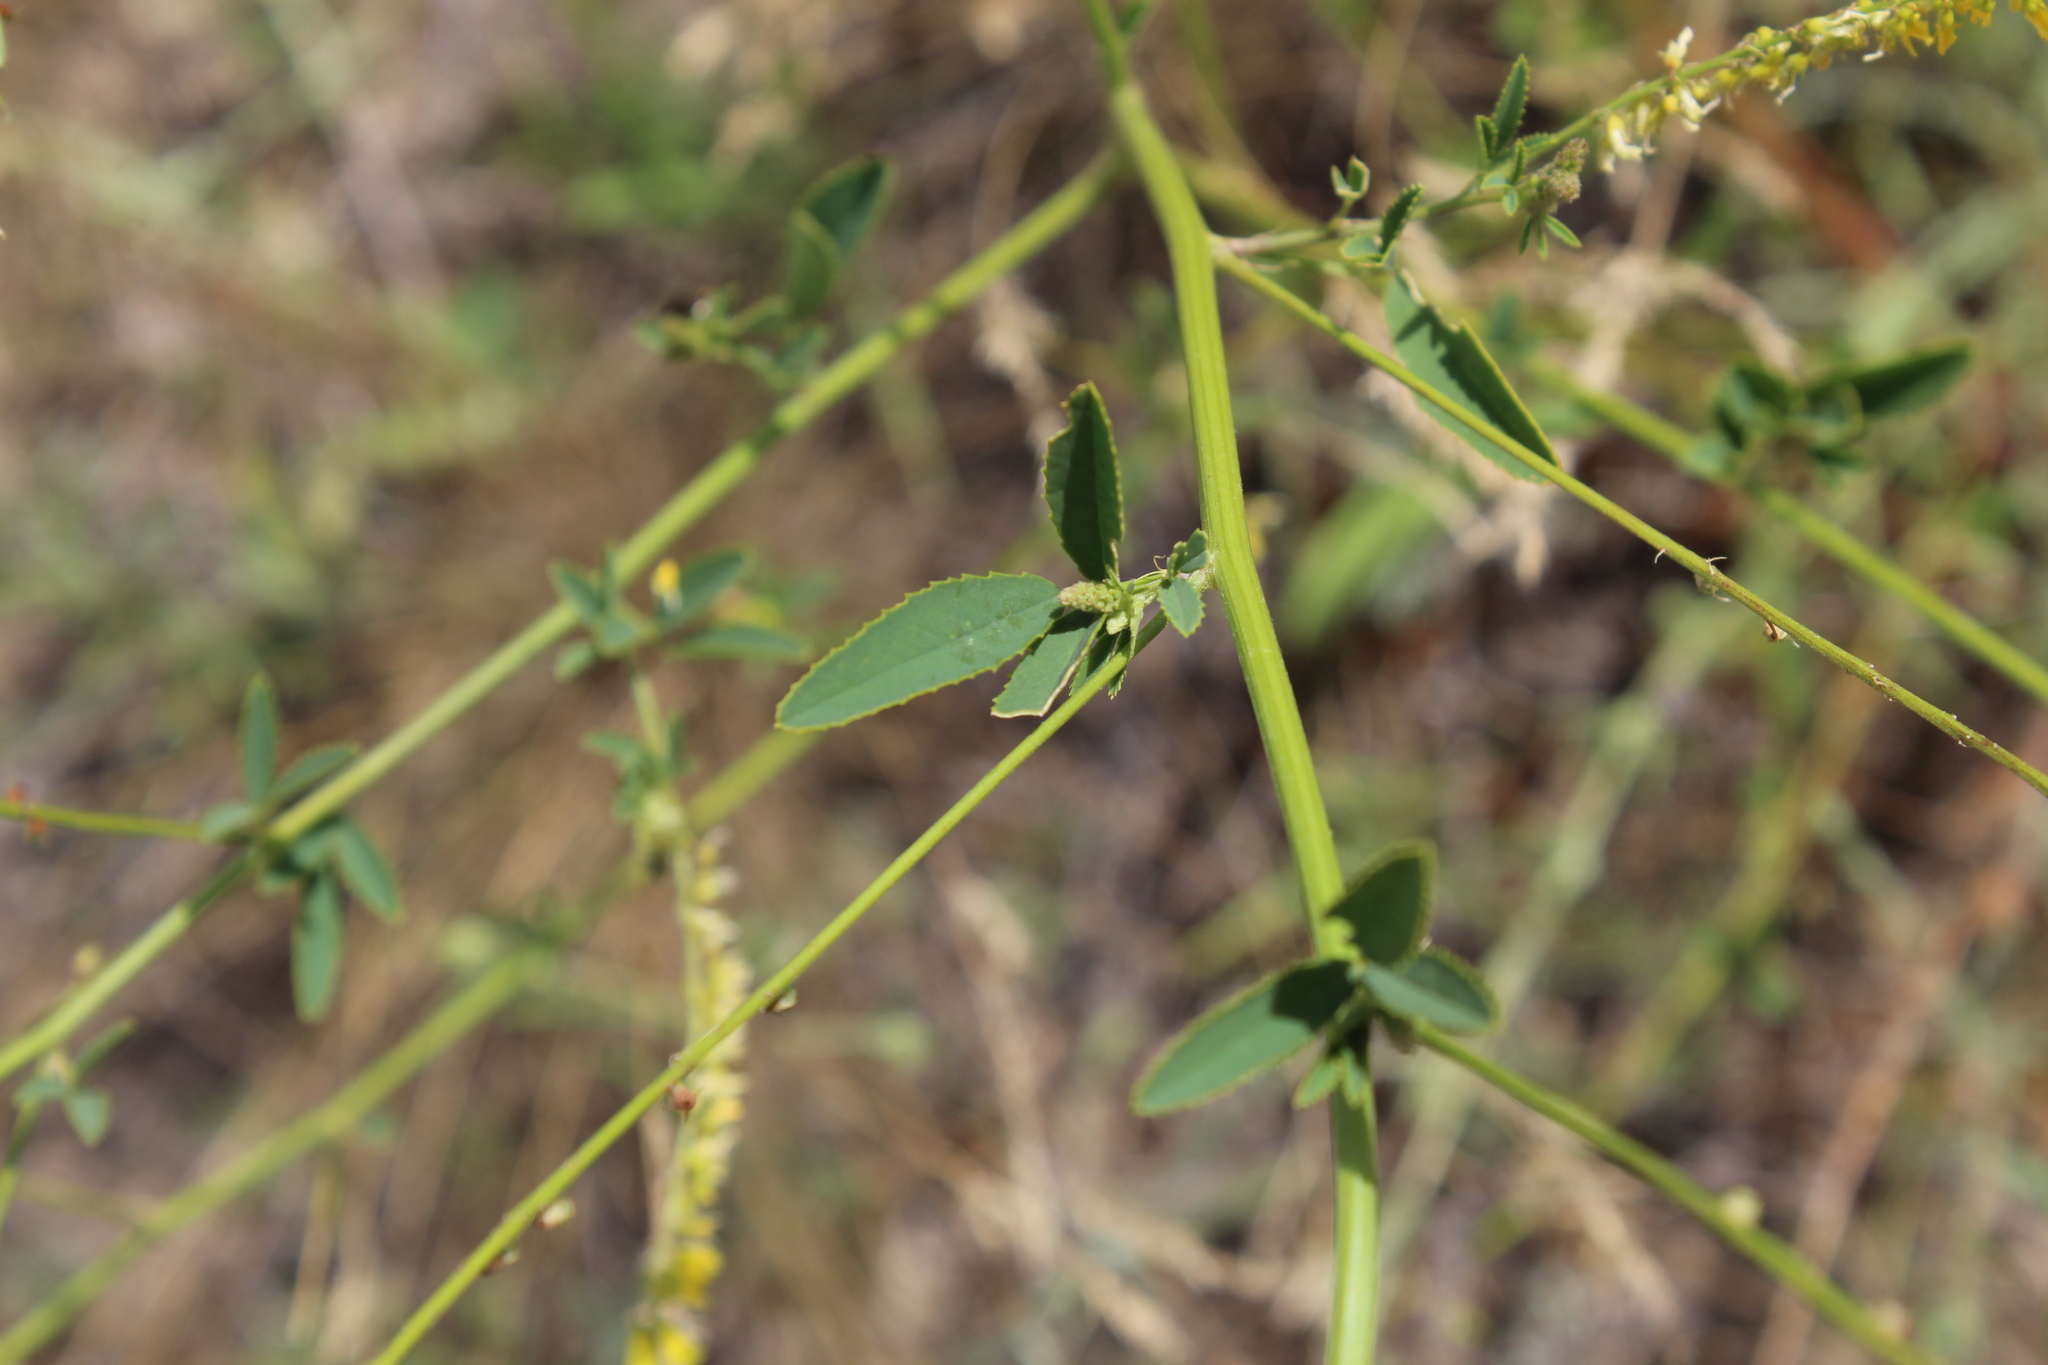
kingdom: Plantae
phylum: Tracheophyta
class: Magnoliopsida
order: Fabales
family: Fabaceae
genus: Melilotus
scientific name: Melilotus officinalis
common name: Sweetclover
